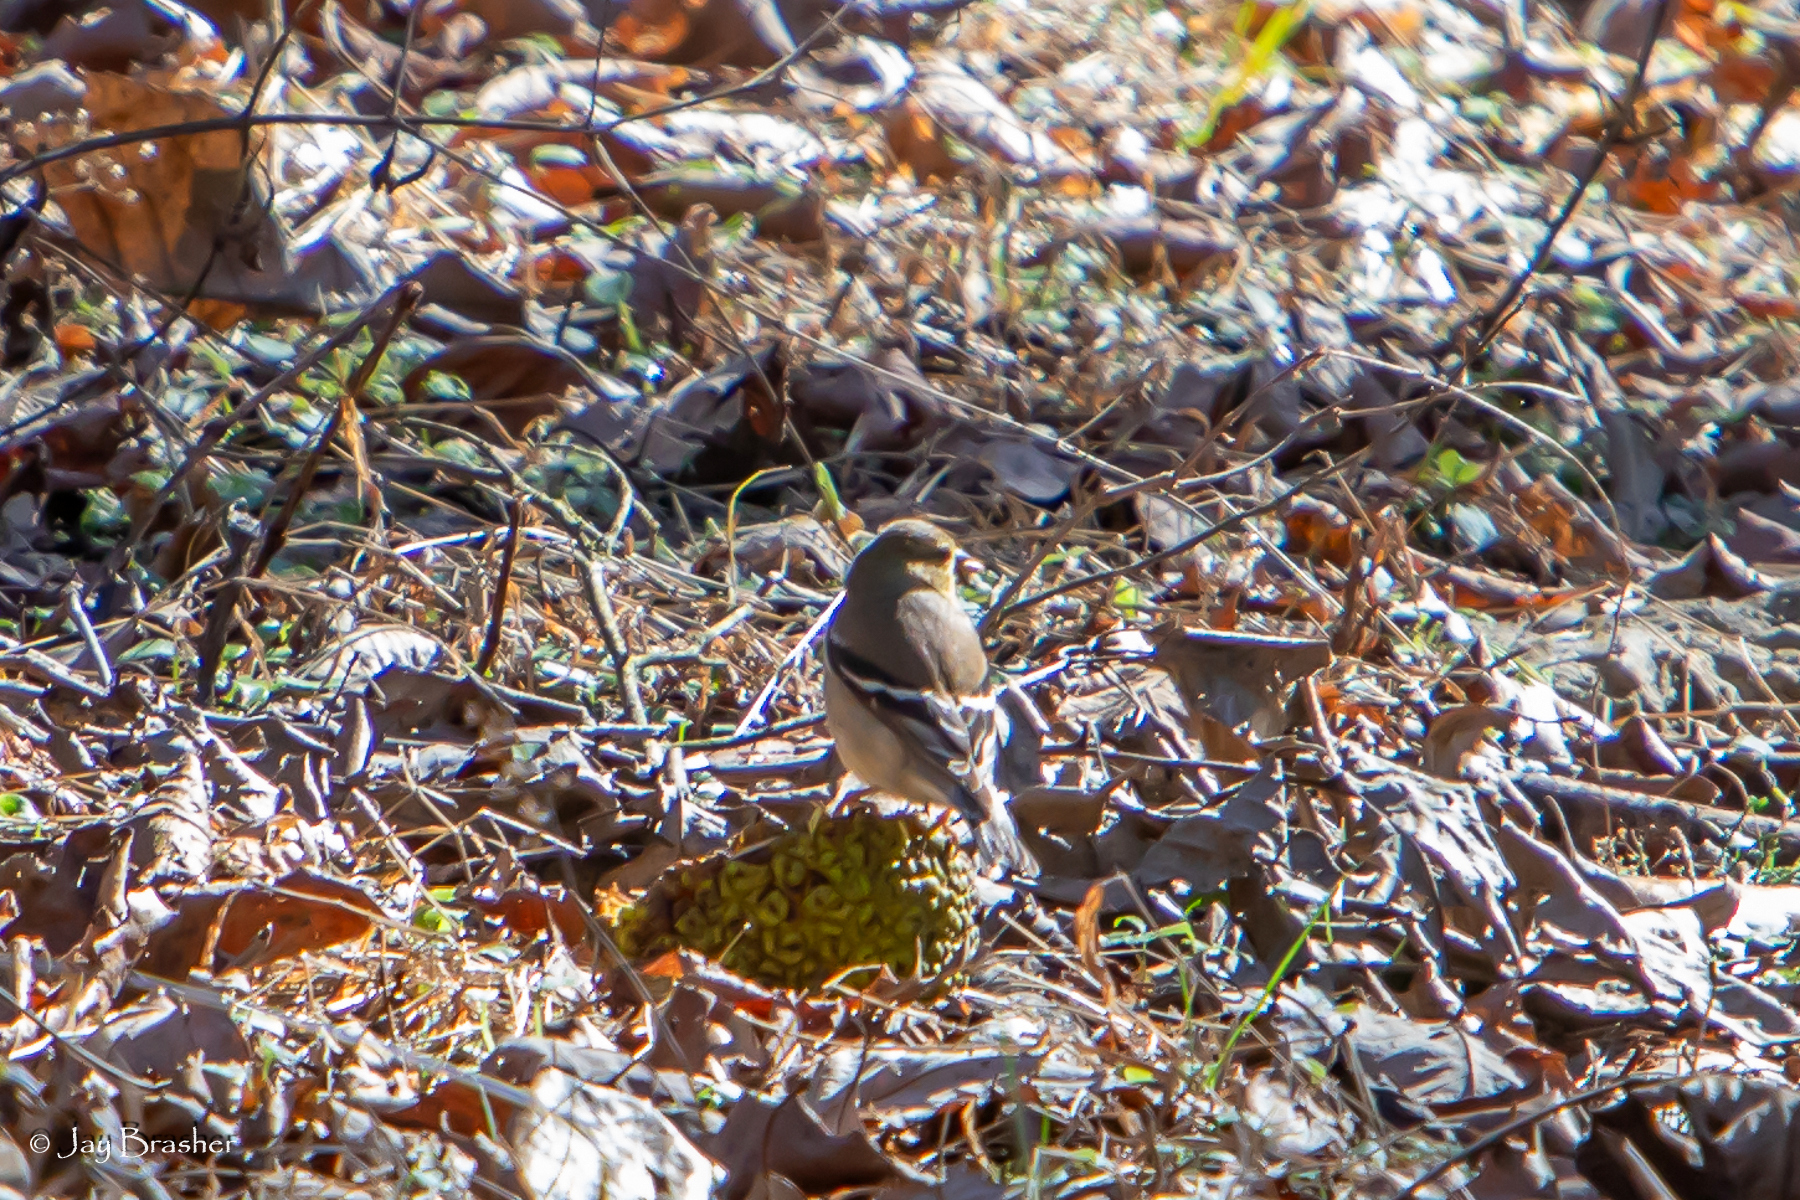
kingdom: Animalia
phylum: Chordata
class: Aves
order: Passeriformes
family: Fringillidae
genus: Spinus
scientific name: Spinus tristis
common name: American goldfinch
